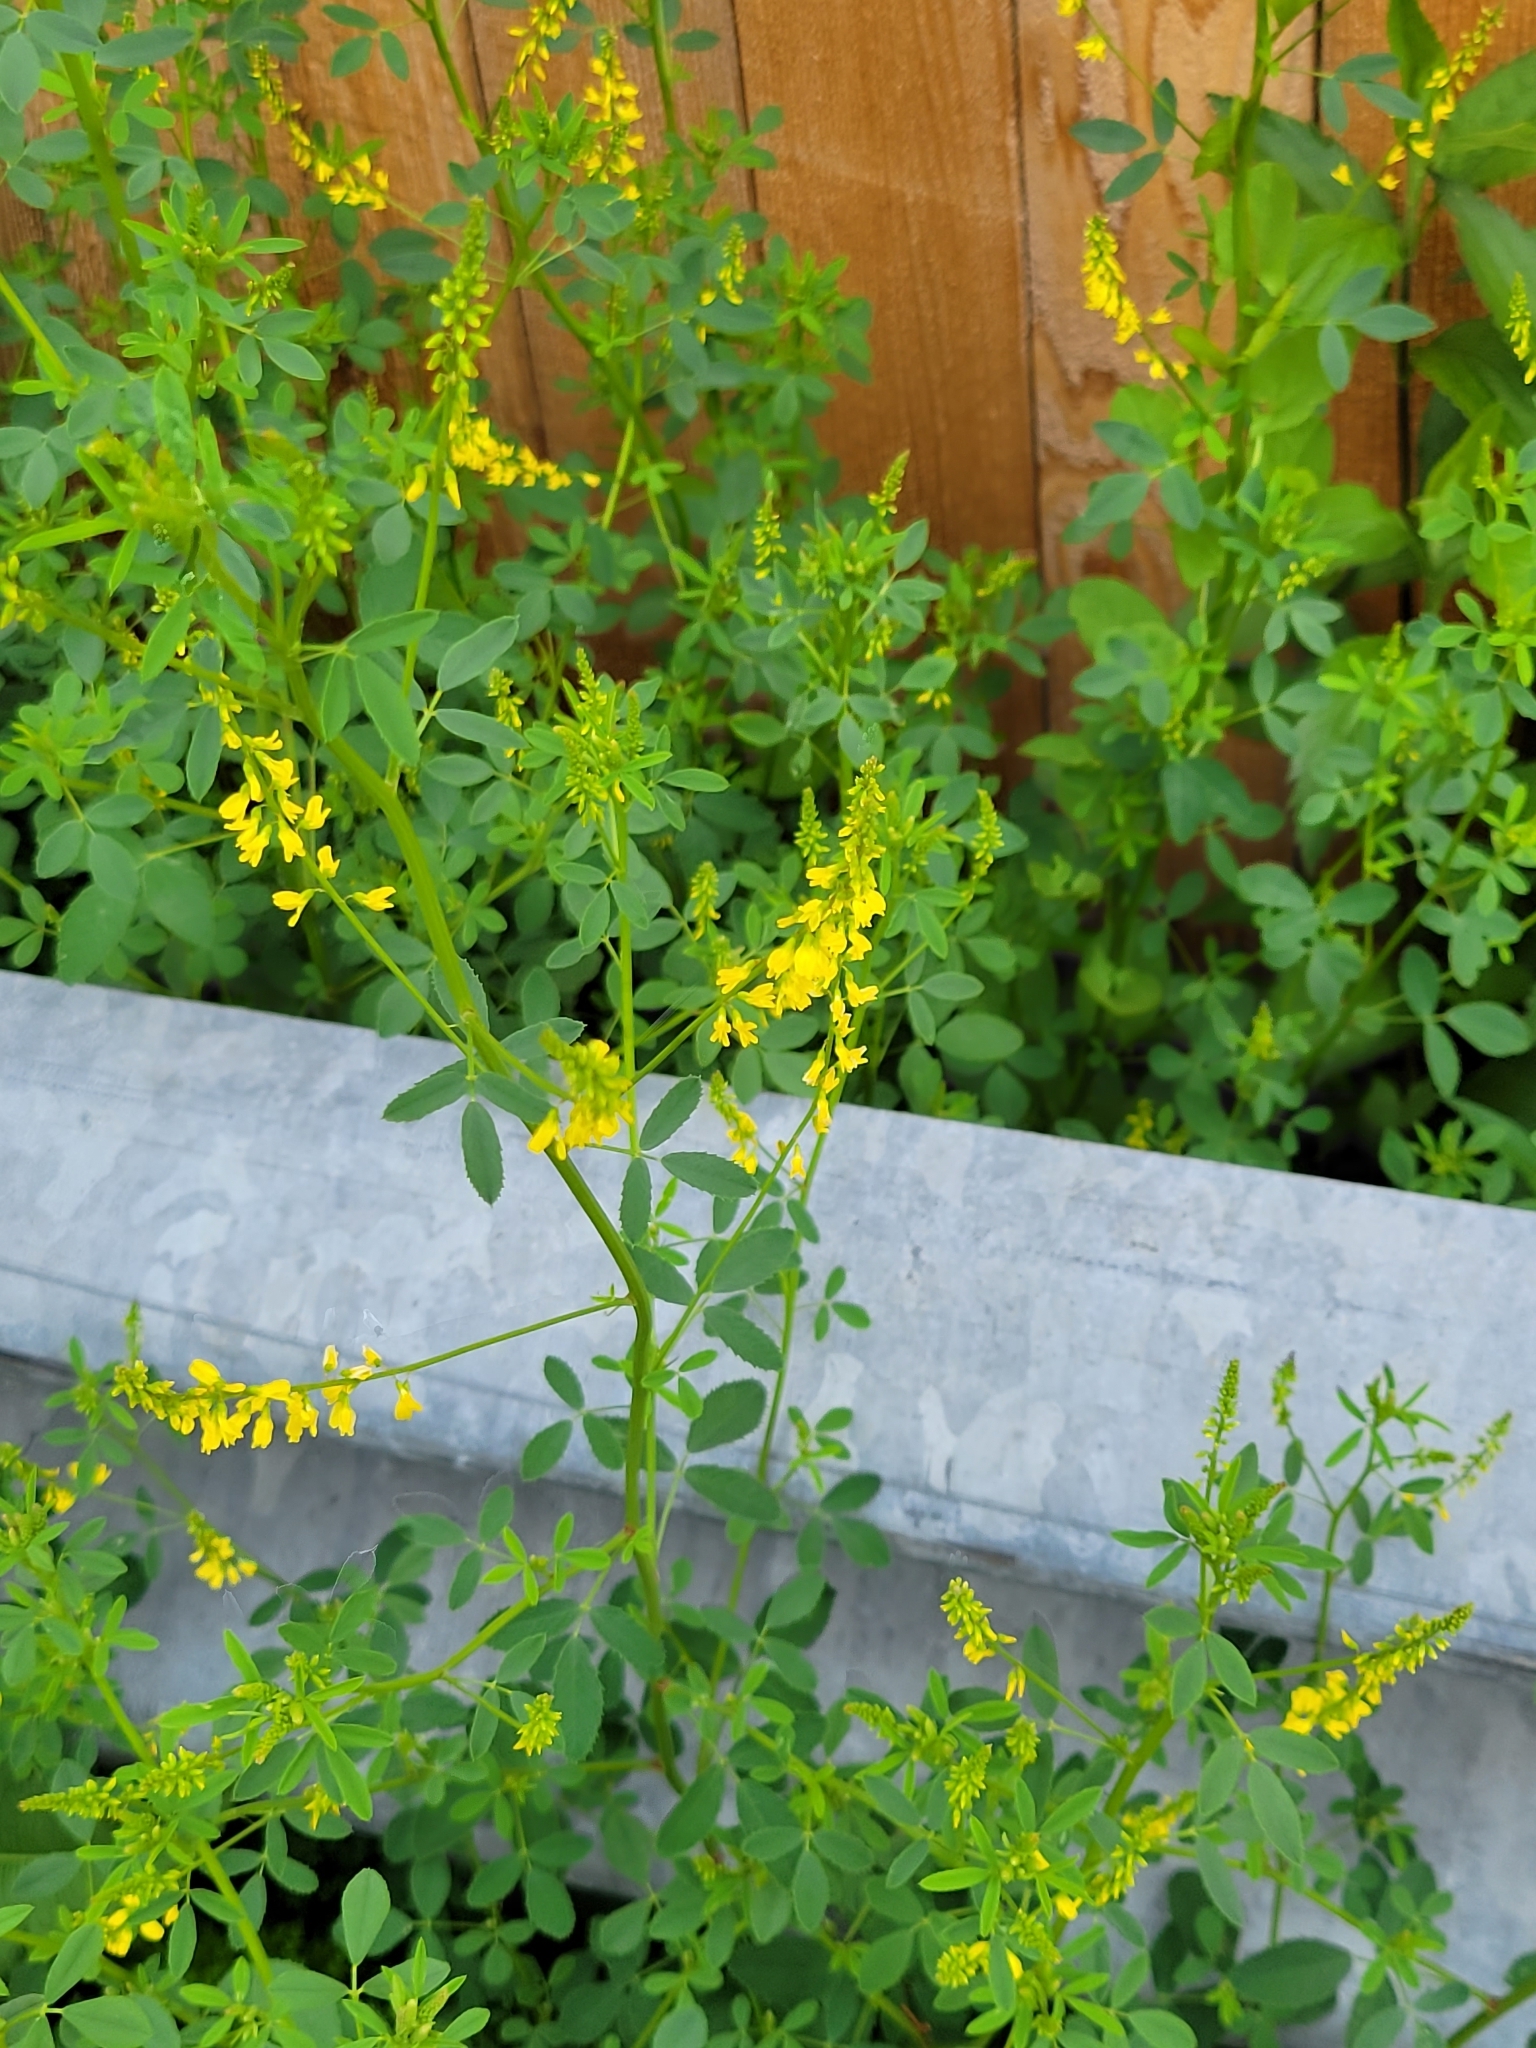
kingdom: Plantae
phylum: Tracheophyta
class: Magnoliopsida
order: Fabales
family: Fabaceae
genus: Melilotus
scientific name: Melilotus officinalis
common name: Sweetclover
